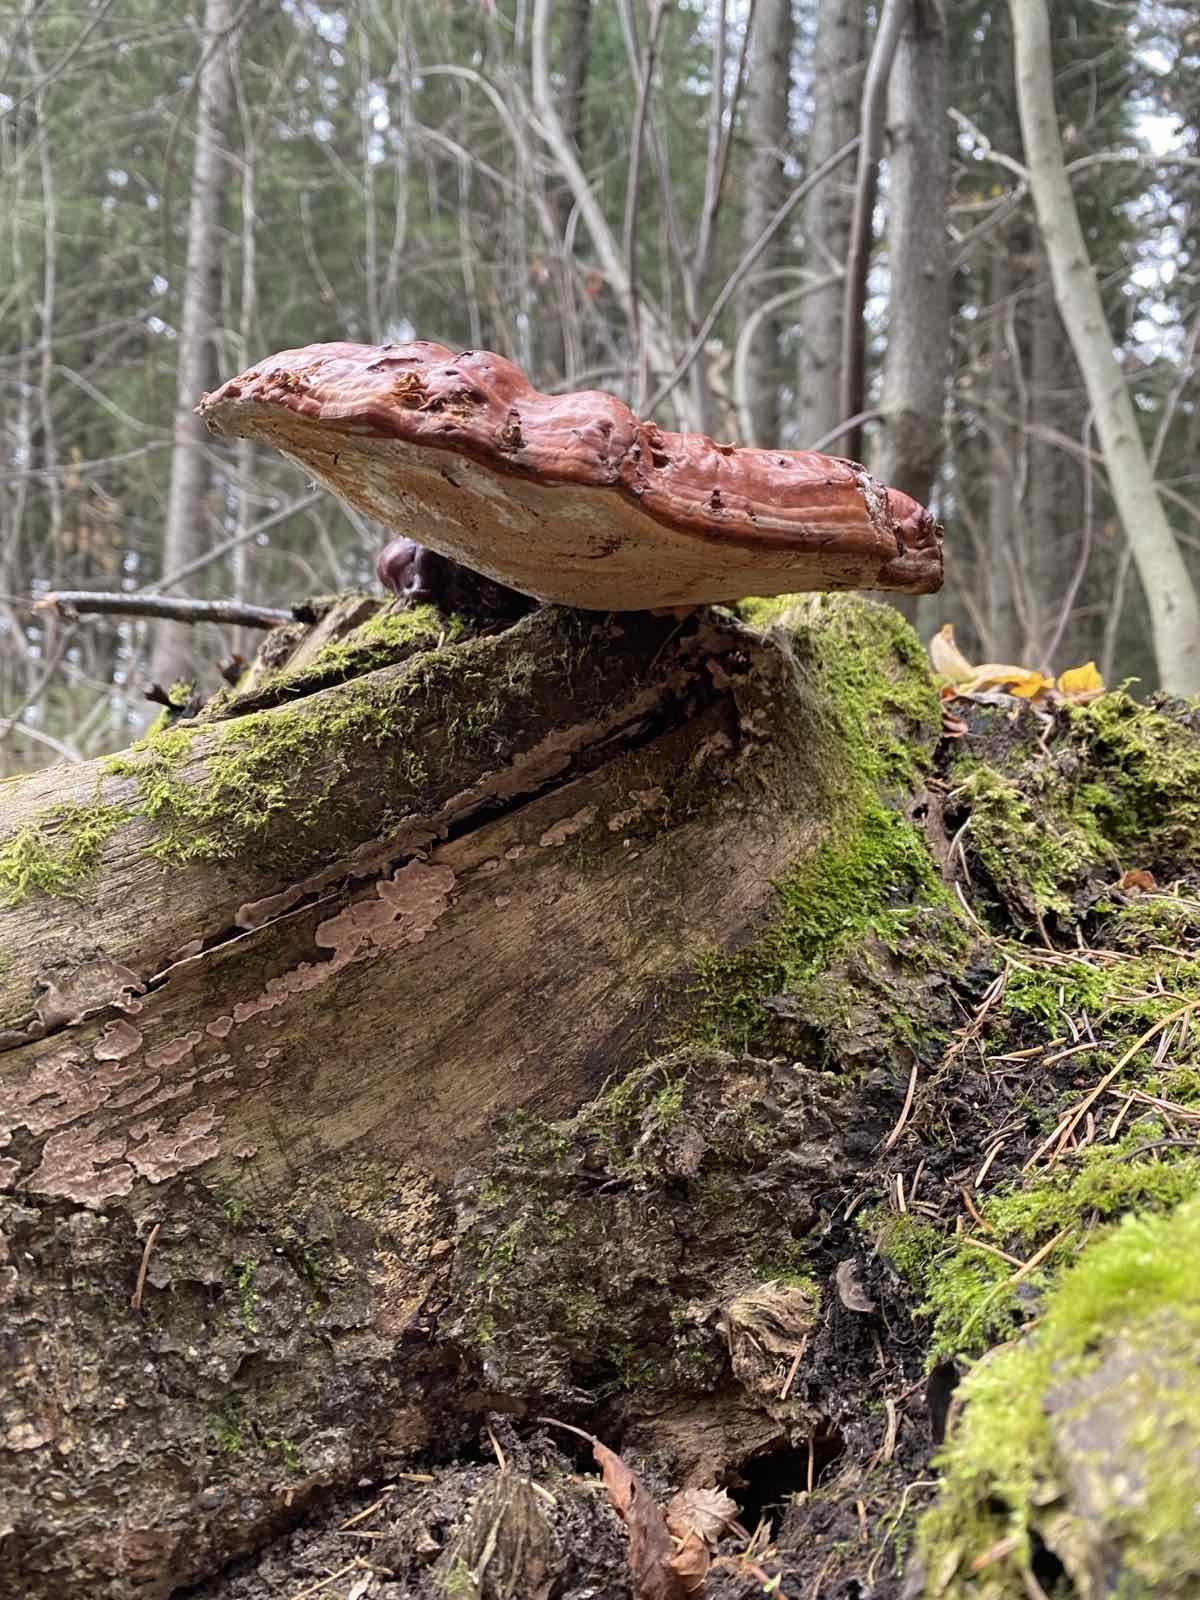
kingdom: Fungi
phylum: Basidiomycota
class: Agaricomycetes
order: Polyporales
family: Polyporaceae
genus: Ganoderma
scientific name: Ganoderma lucidum
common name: Lacquered bracket
